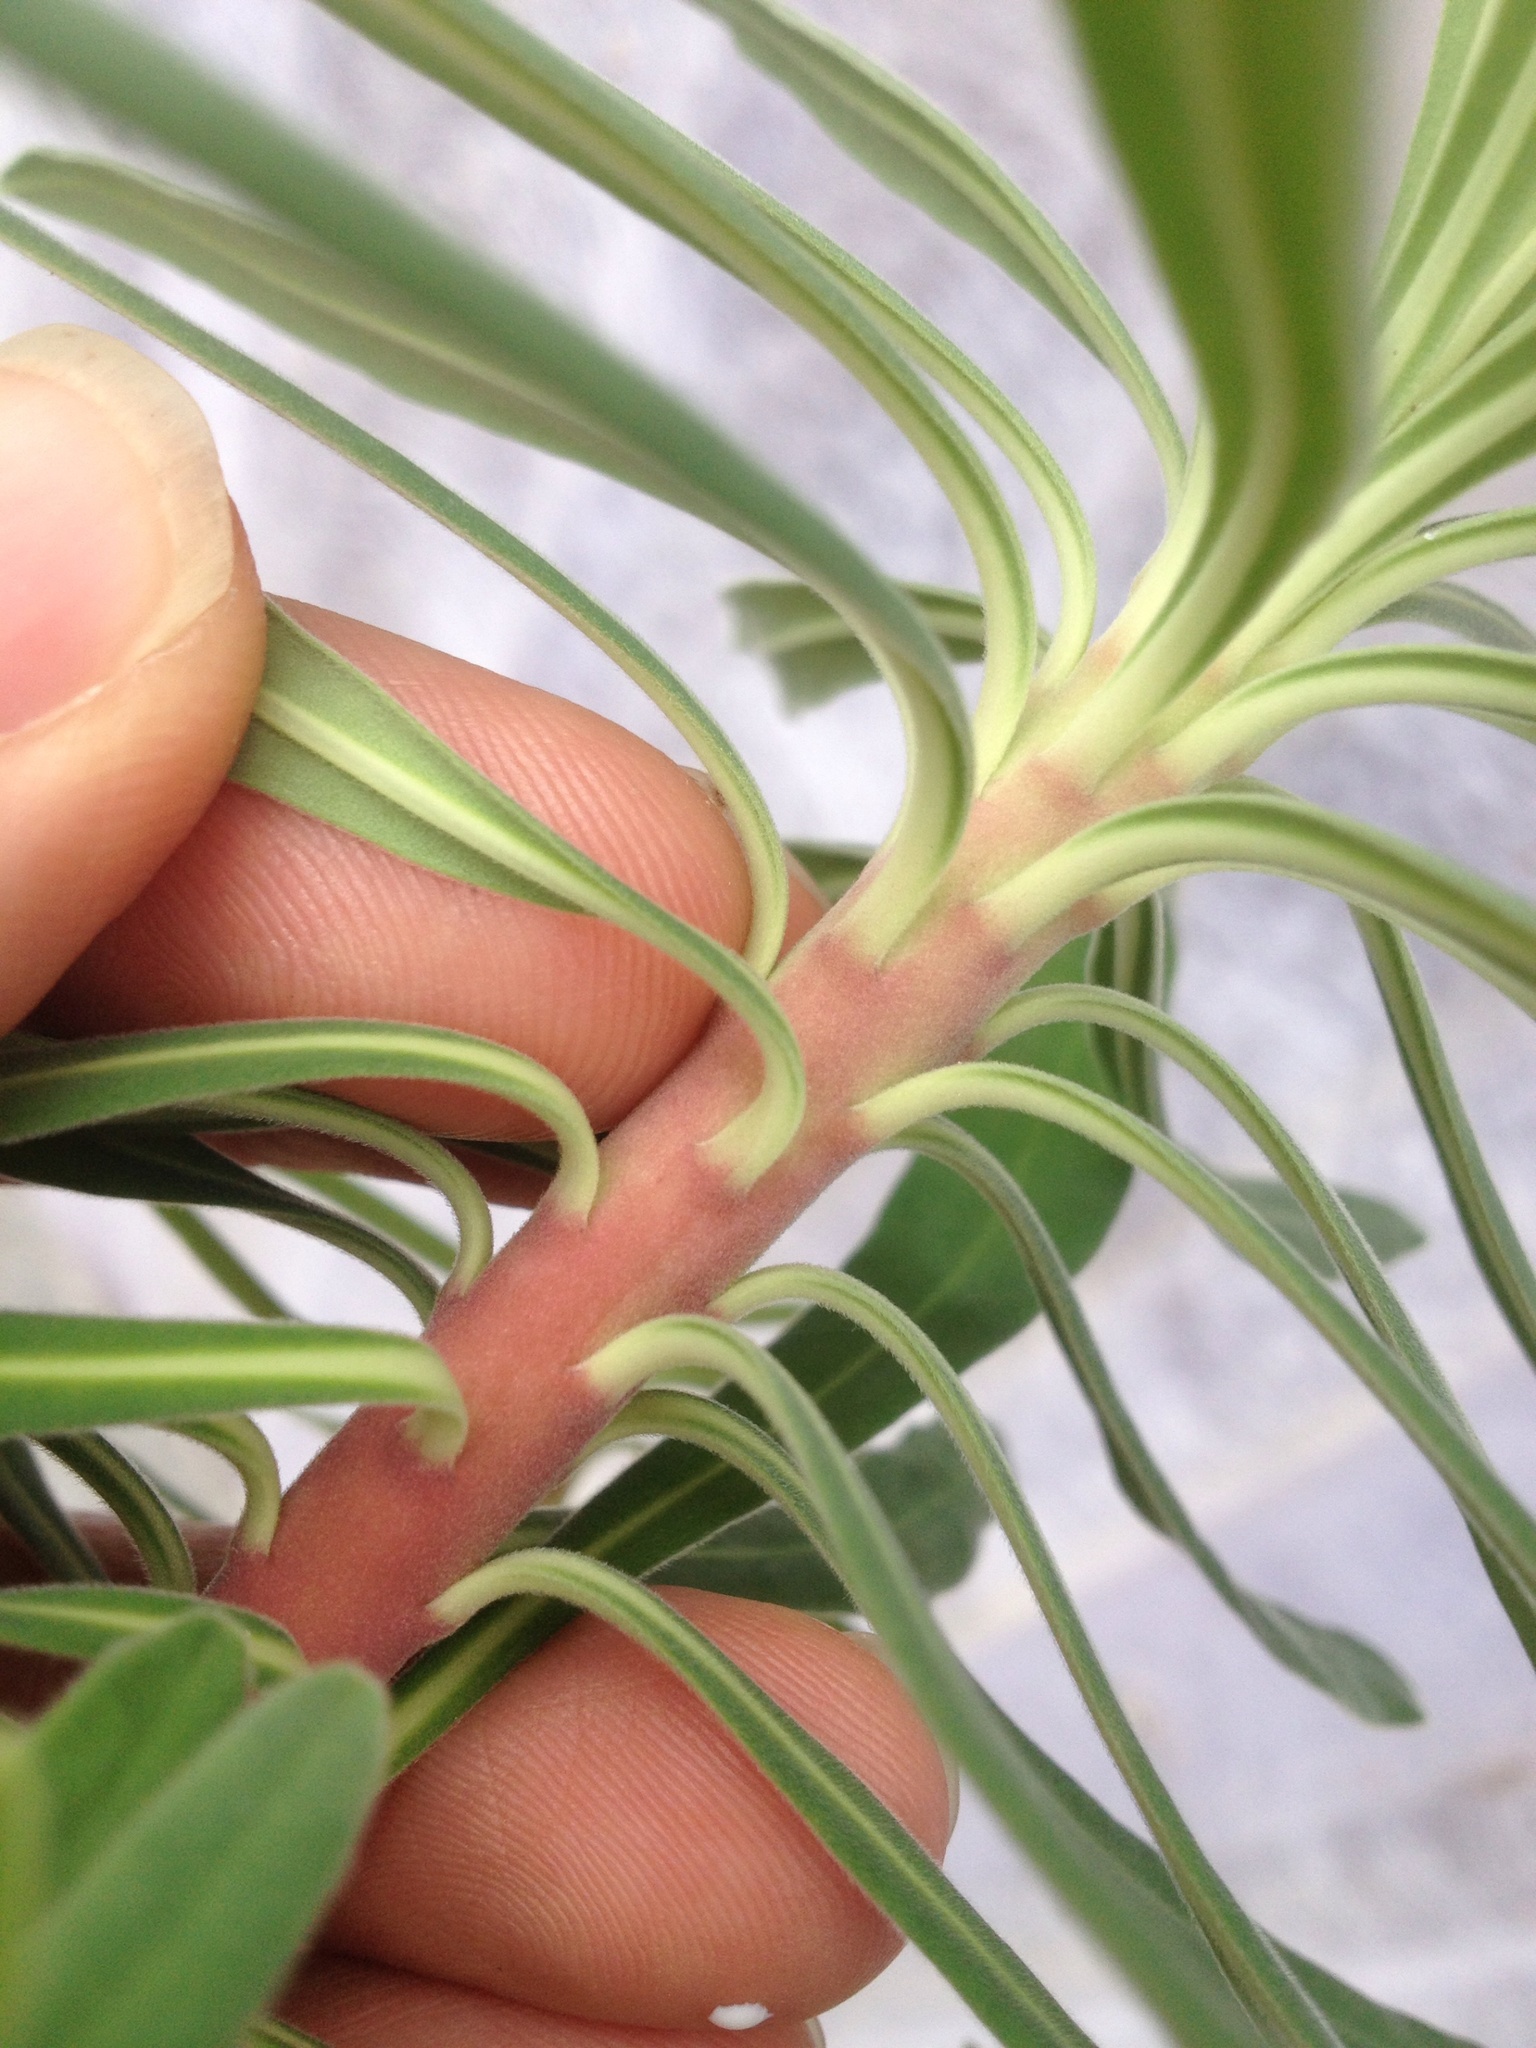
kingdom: Plantae
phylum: Tracheophyta
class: Magnoliopsida
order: Malpighiales
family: Euphorbiaceae
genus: Euphorbia
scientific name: Euphorbia glauca
